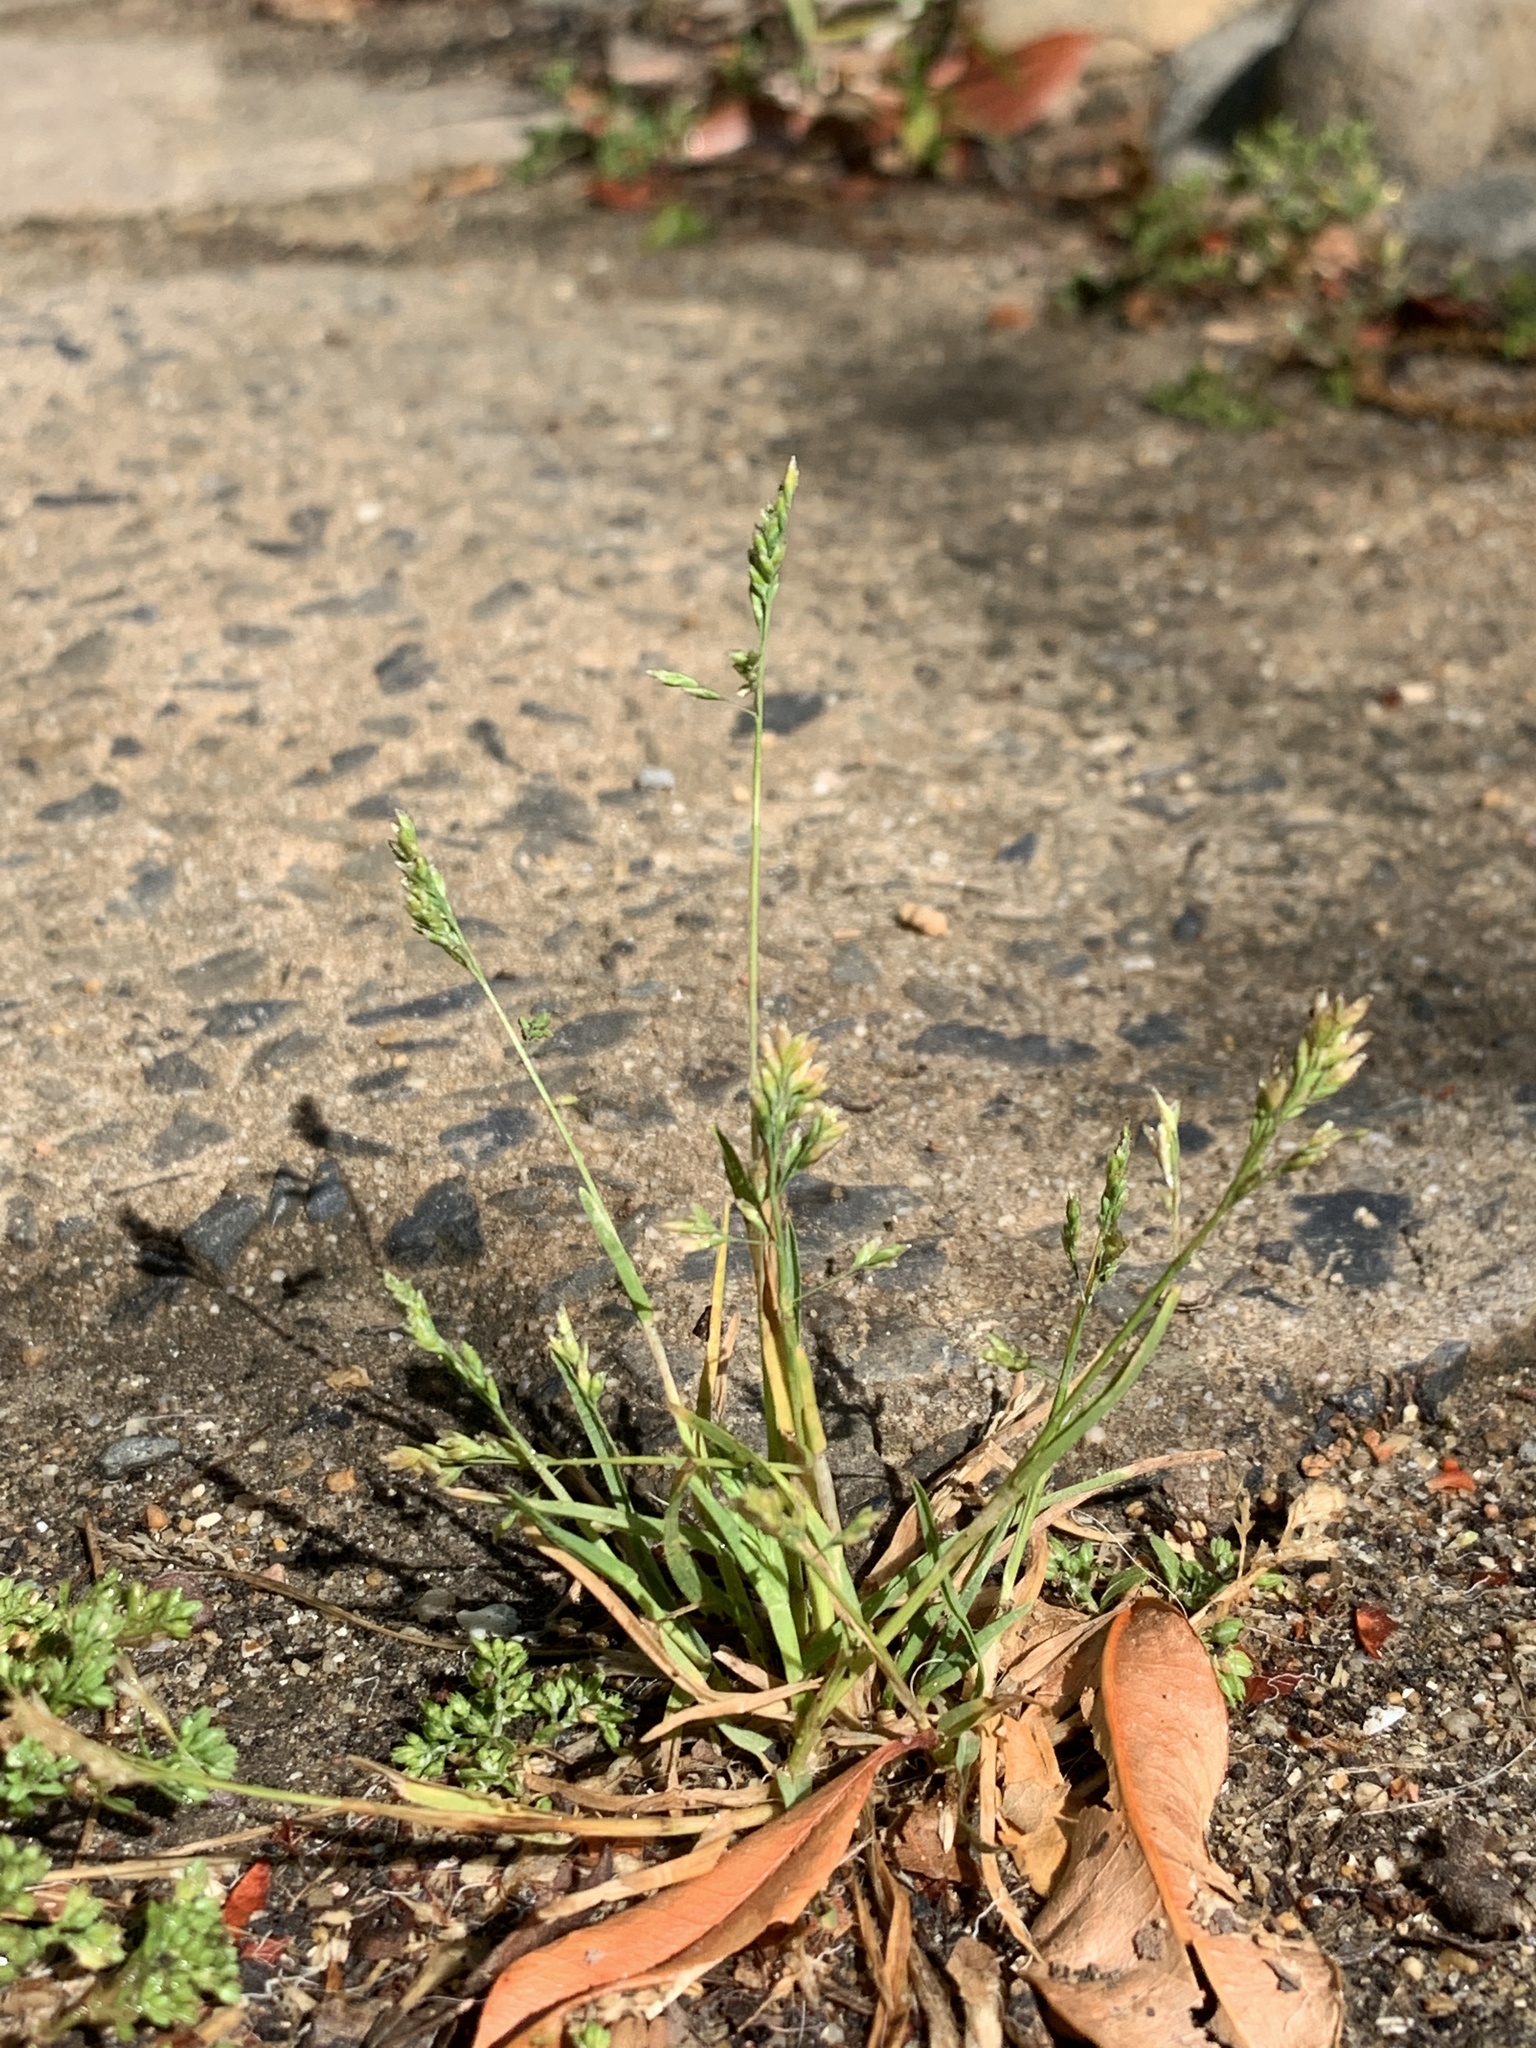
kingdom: Plantae
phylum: Tracheophyta
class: Liliopsida
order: Poales
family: Poaceae
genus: Poa
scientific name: Poa annua
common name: Annual bluegrass
